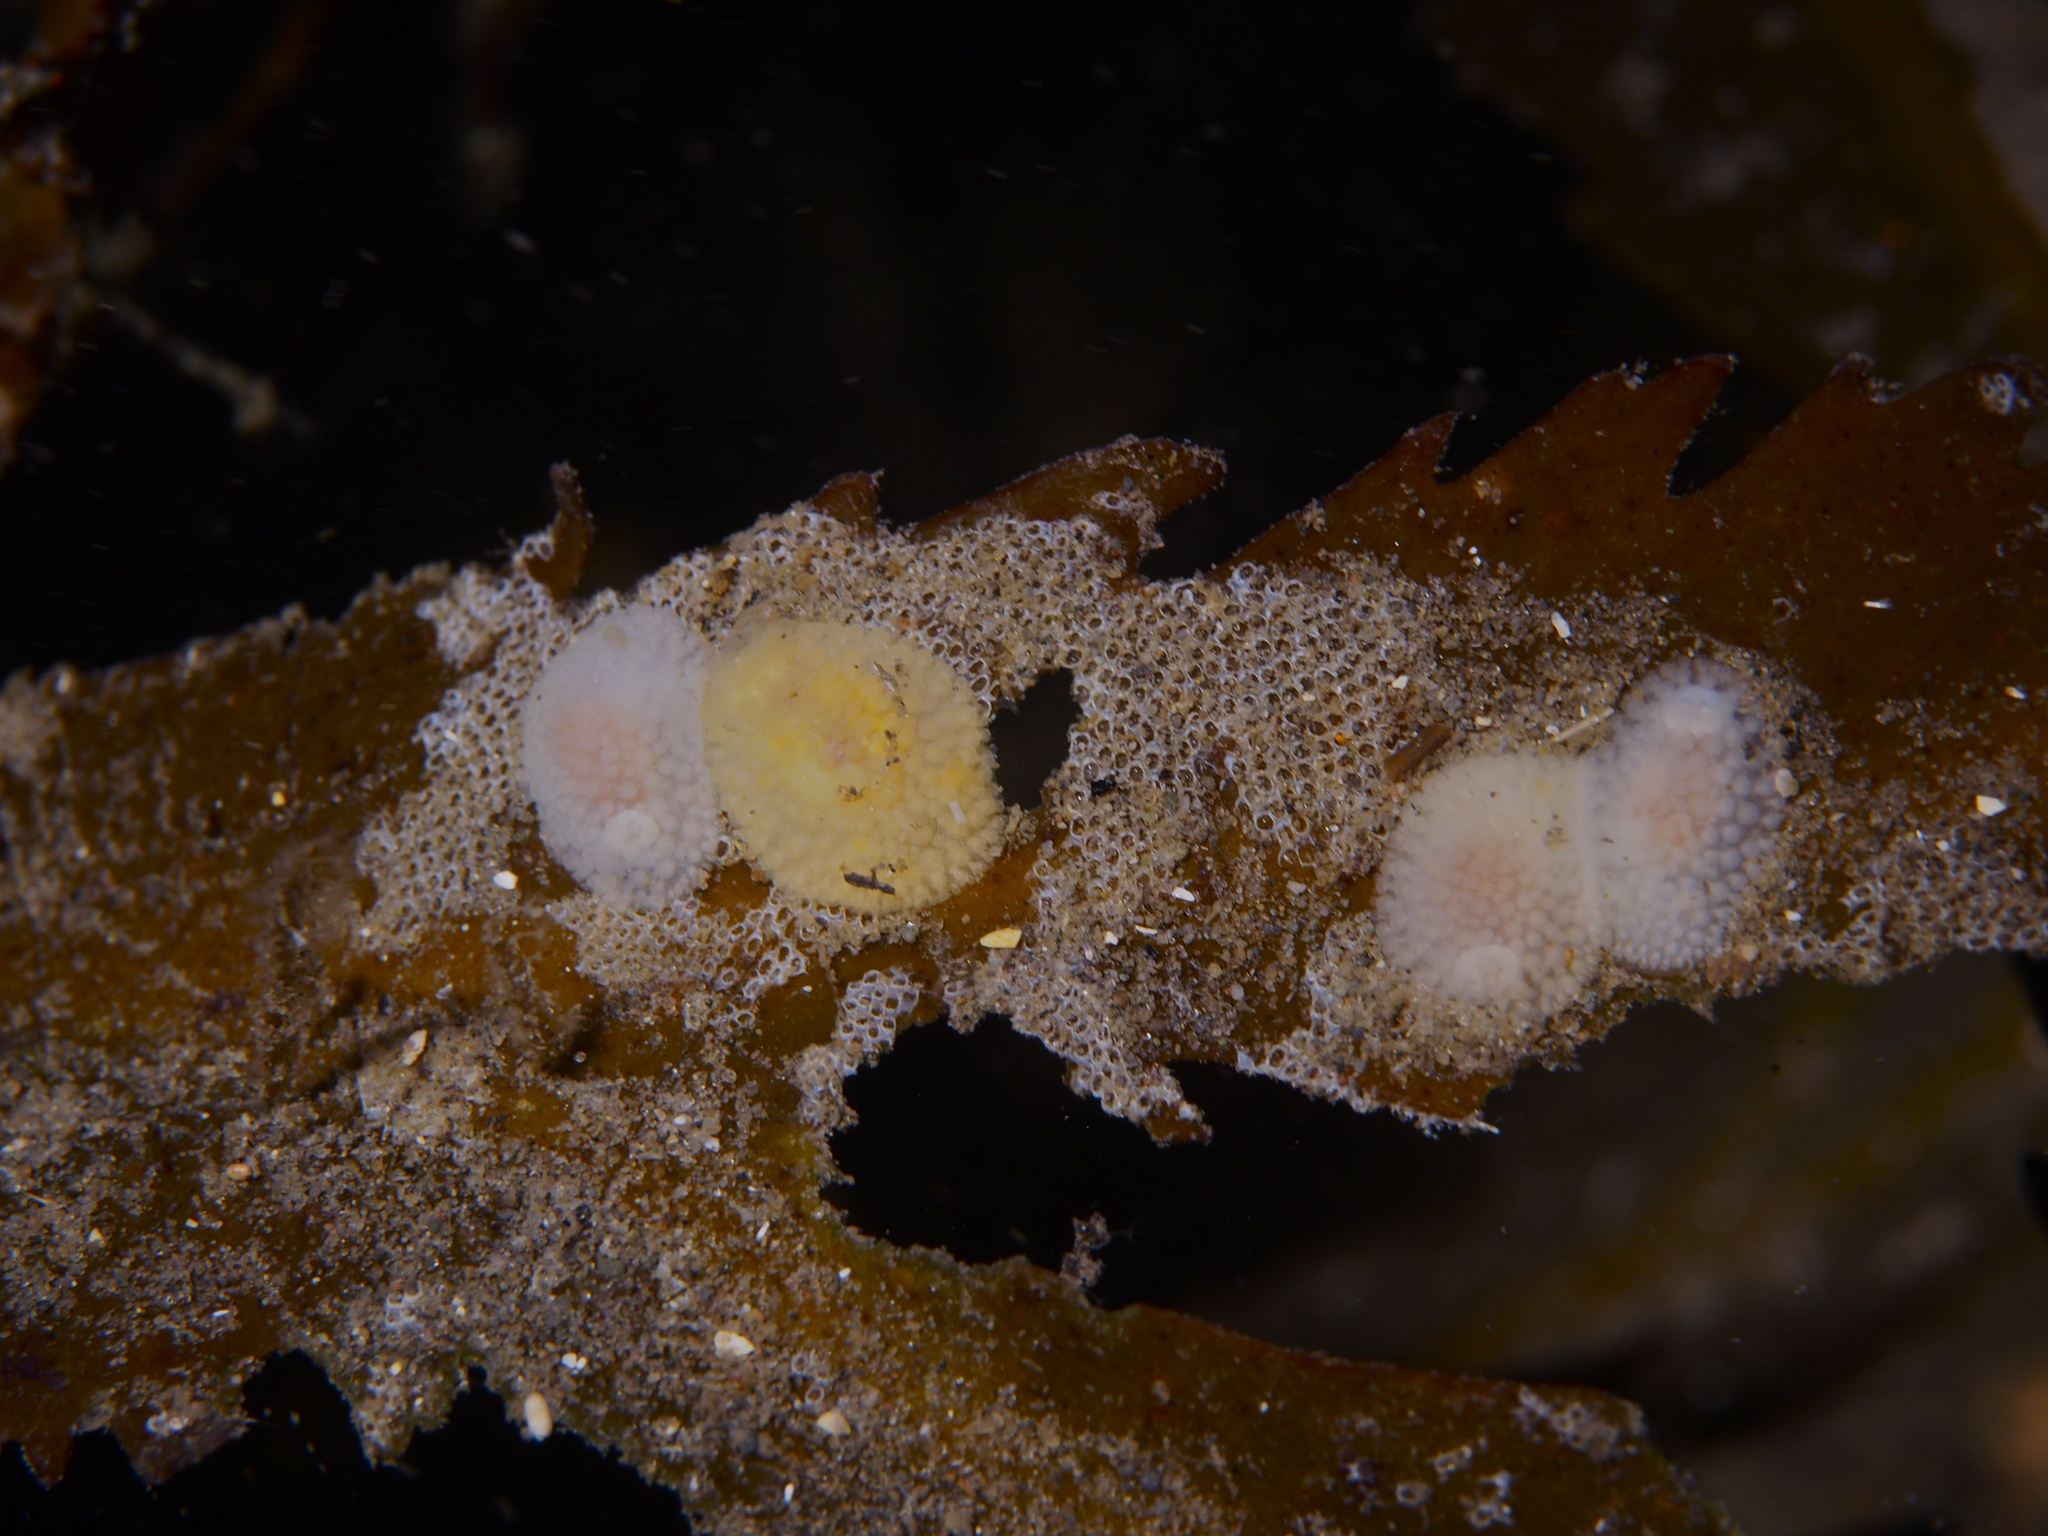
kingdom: Animalia
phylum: Mollusca
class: Gastropoda
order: Nudibranchia
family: Onchidorididae
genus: Onchidoris
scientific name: Onchidoris muricata
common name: Rough doris
